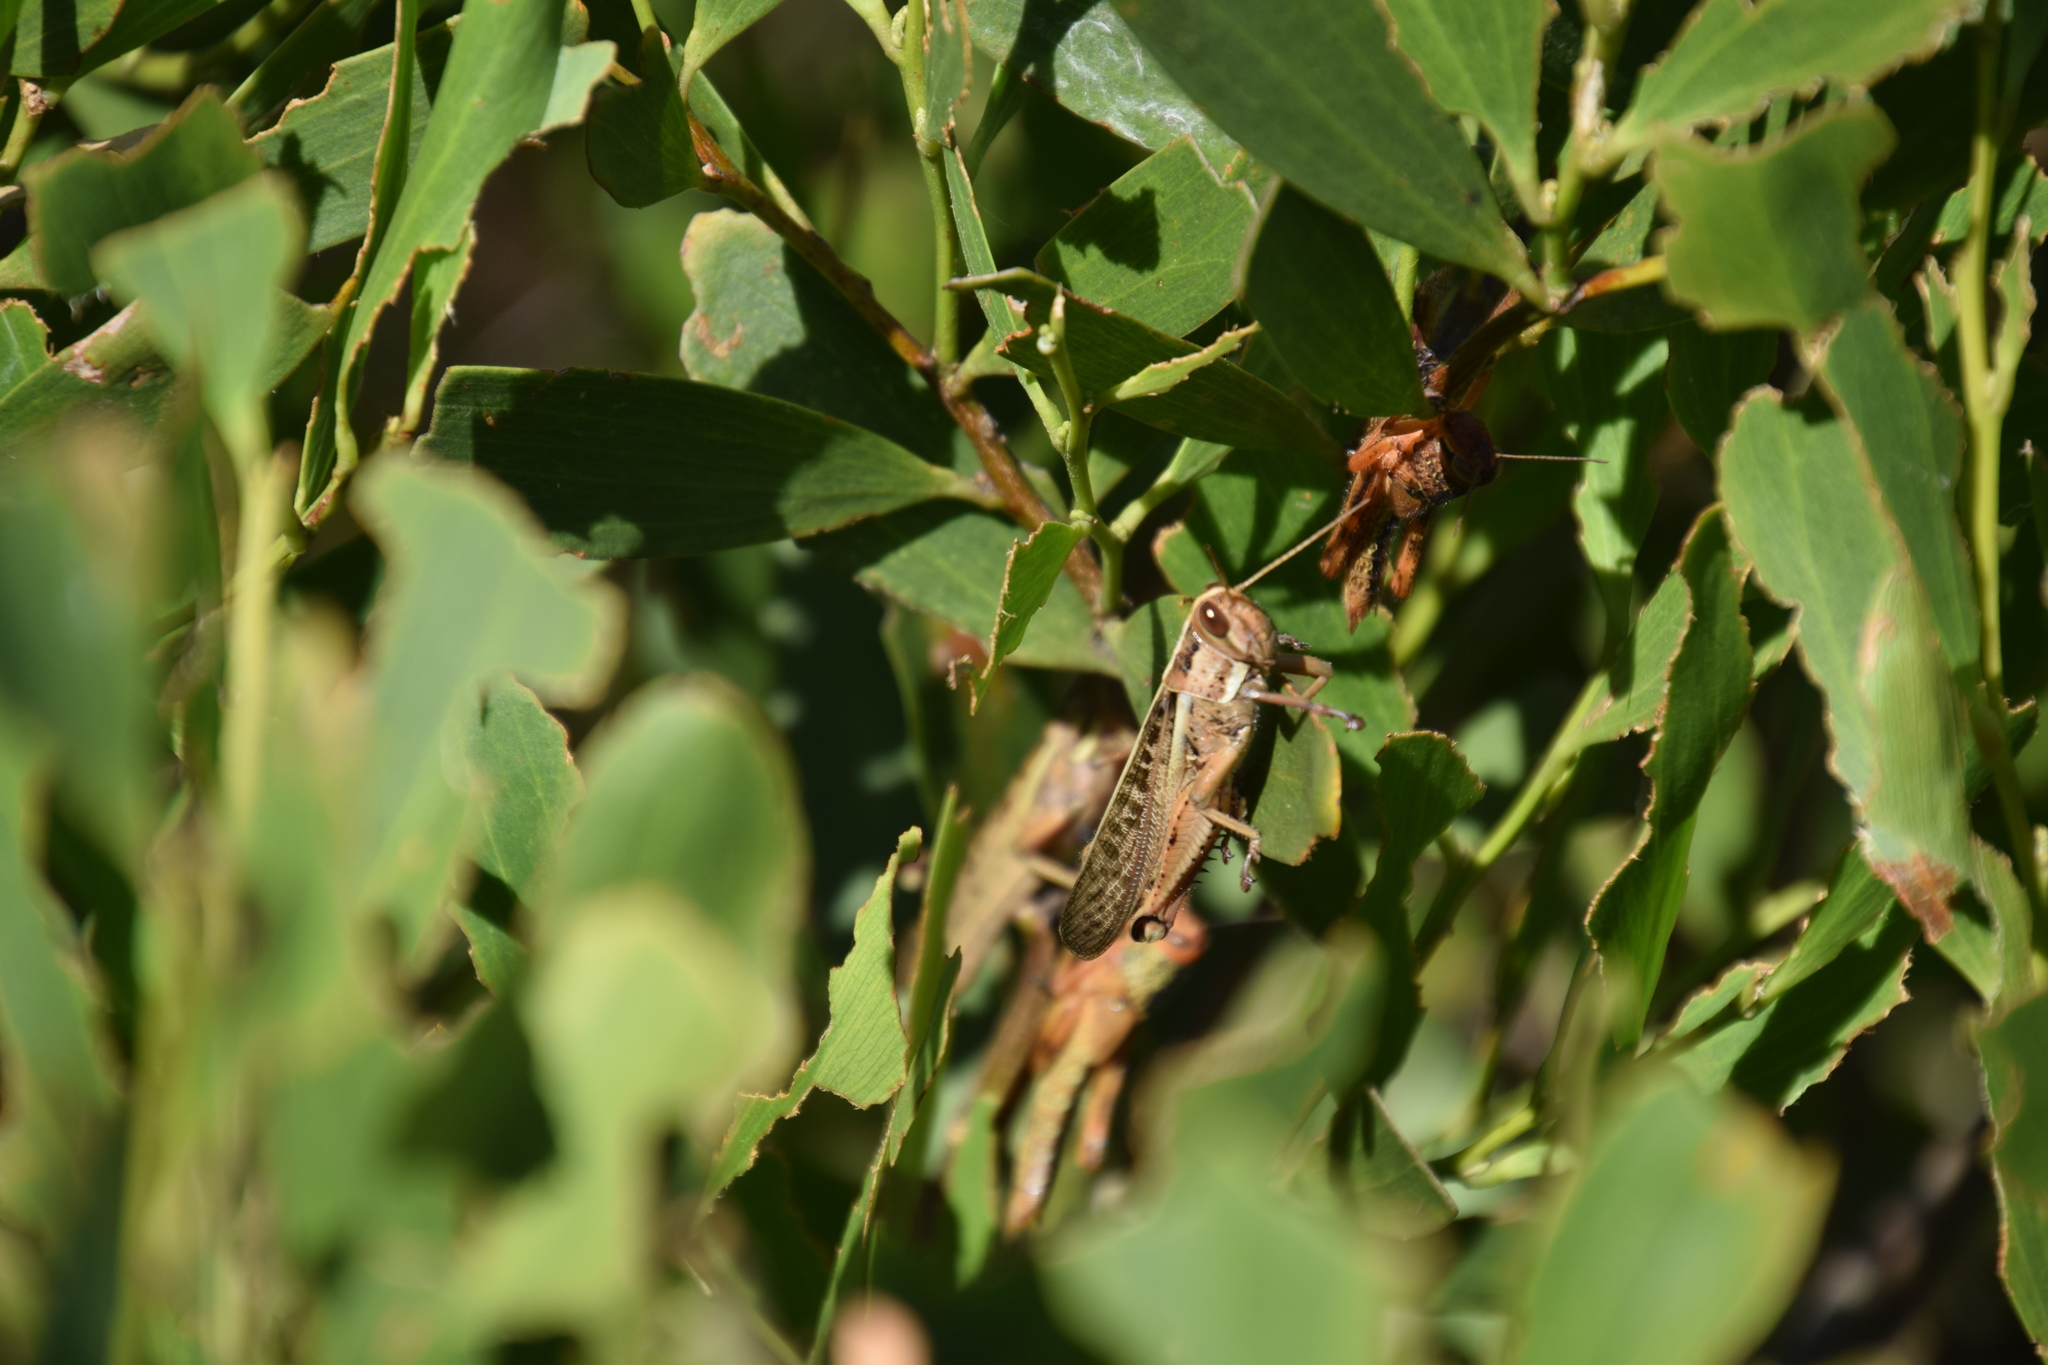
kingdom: Animalia
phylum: Arthropoda
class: Insecta
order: Orthoptera
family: Acrididae
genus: Austracris
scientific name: Austracris guttulosa
